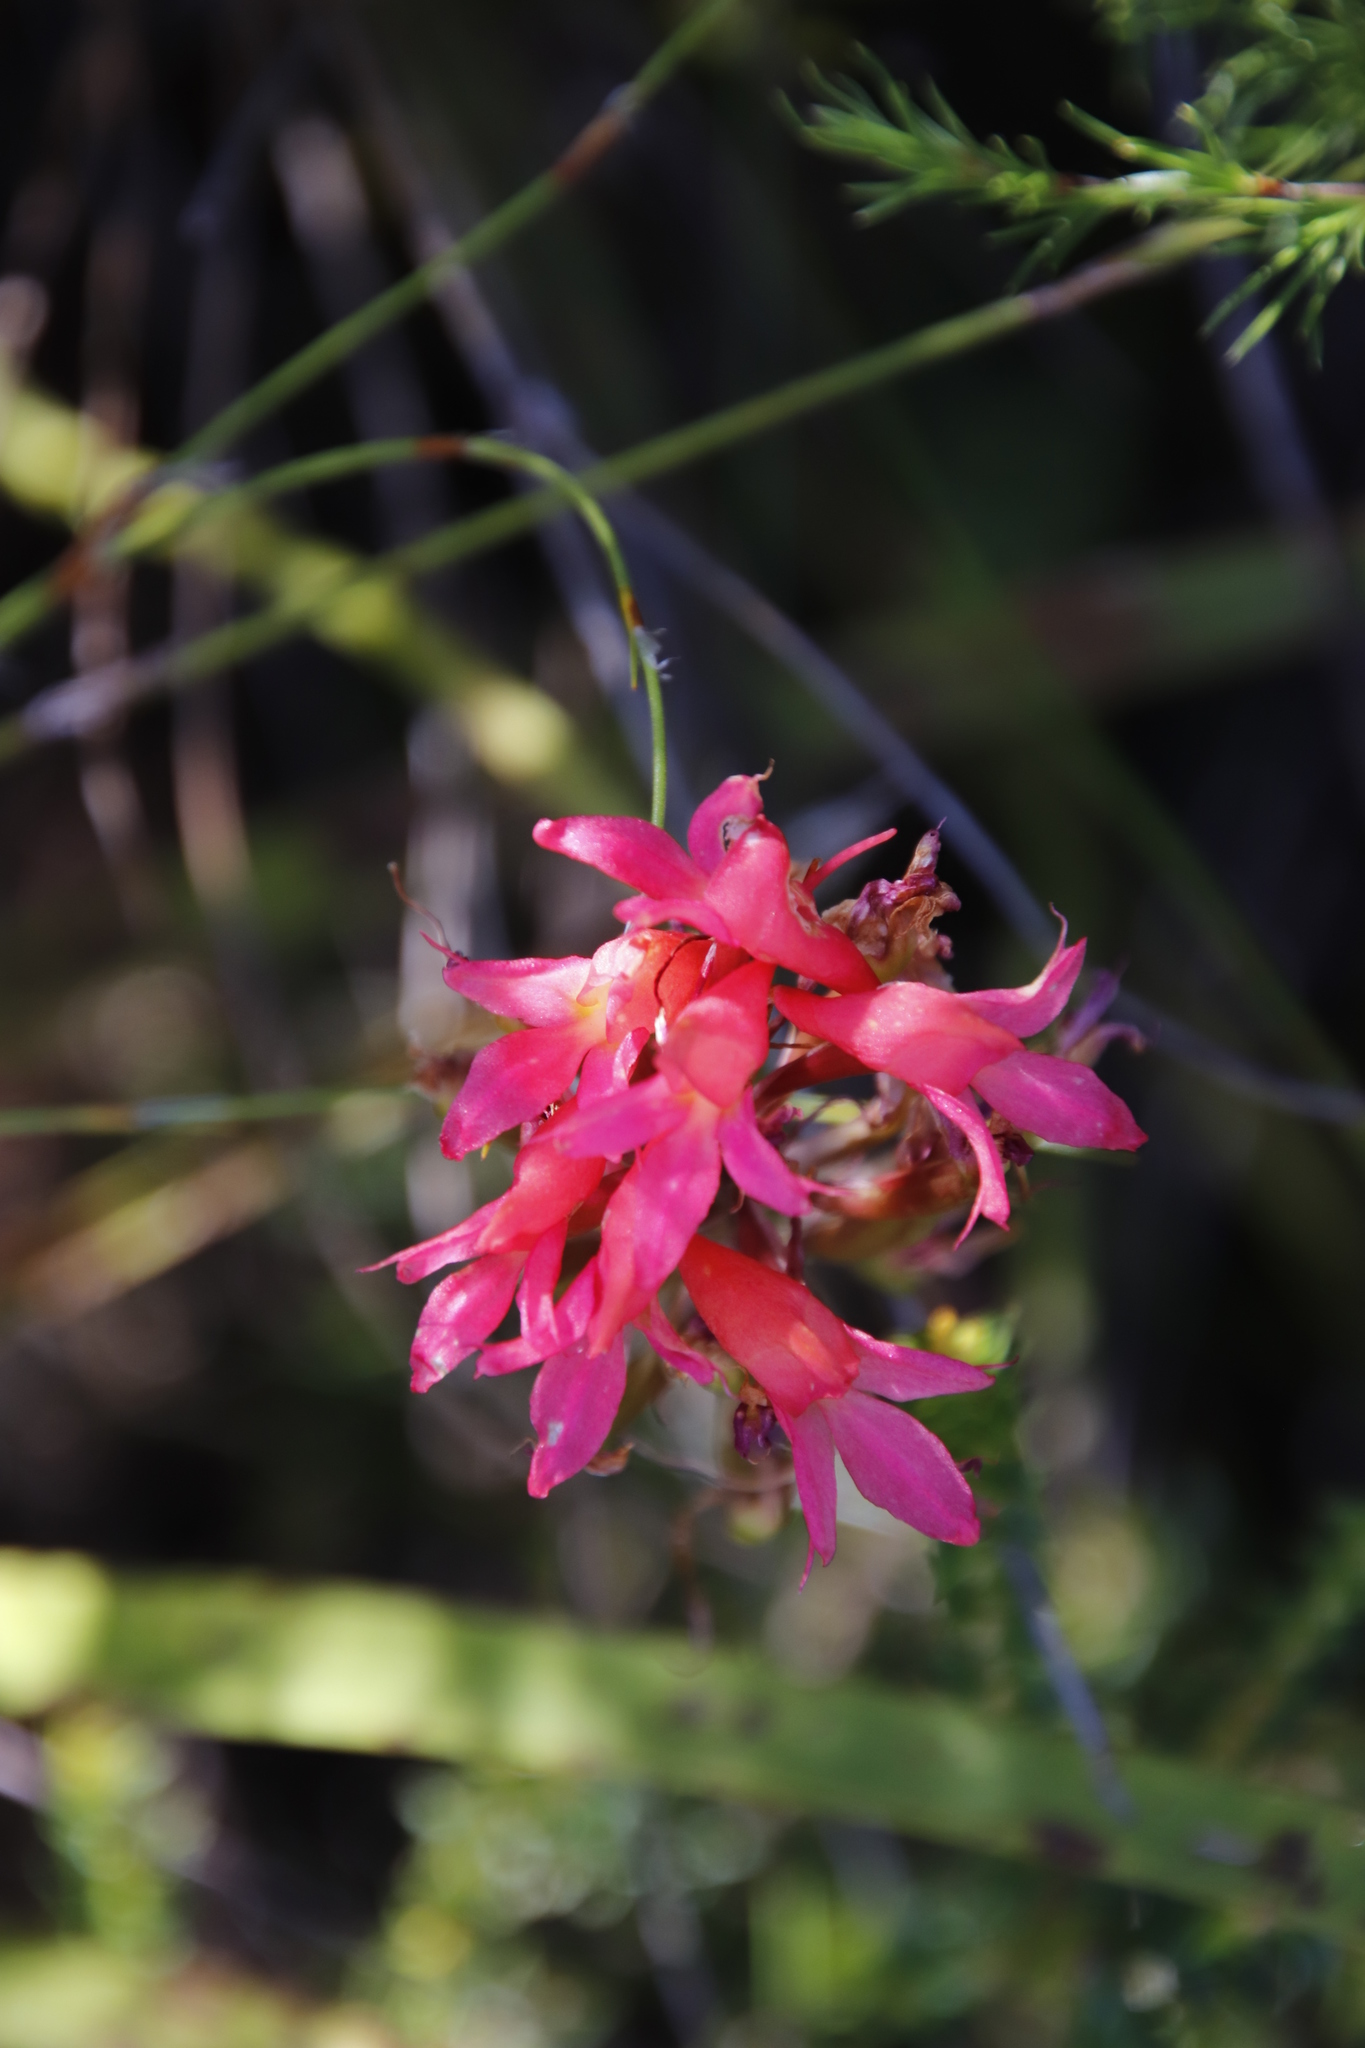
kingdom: Plantae
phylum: Tracheophyta
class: Liliopsida
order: Asparagales
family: Orchidaceae
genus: Disa
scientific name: Disa ferruginea
